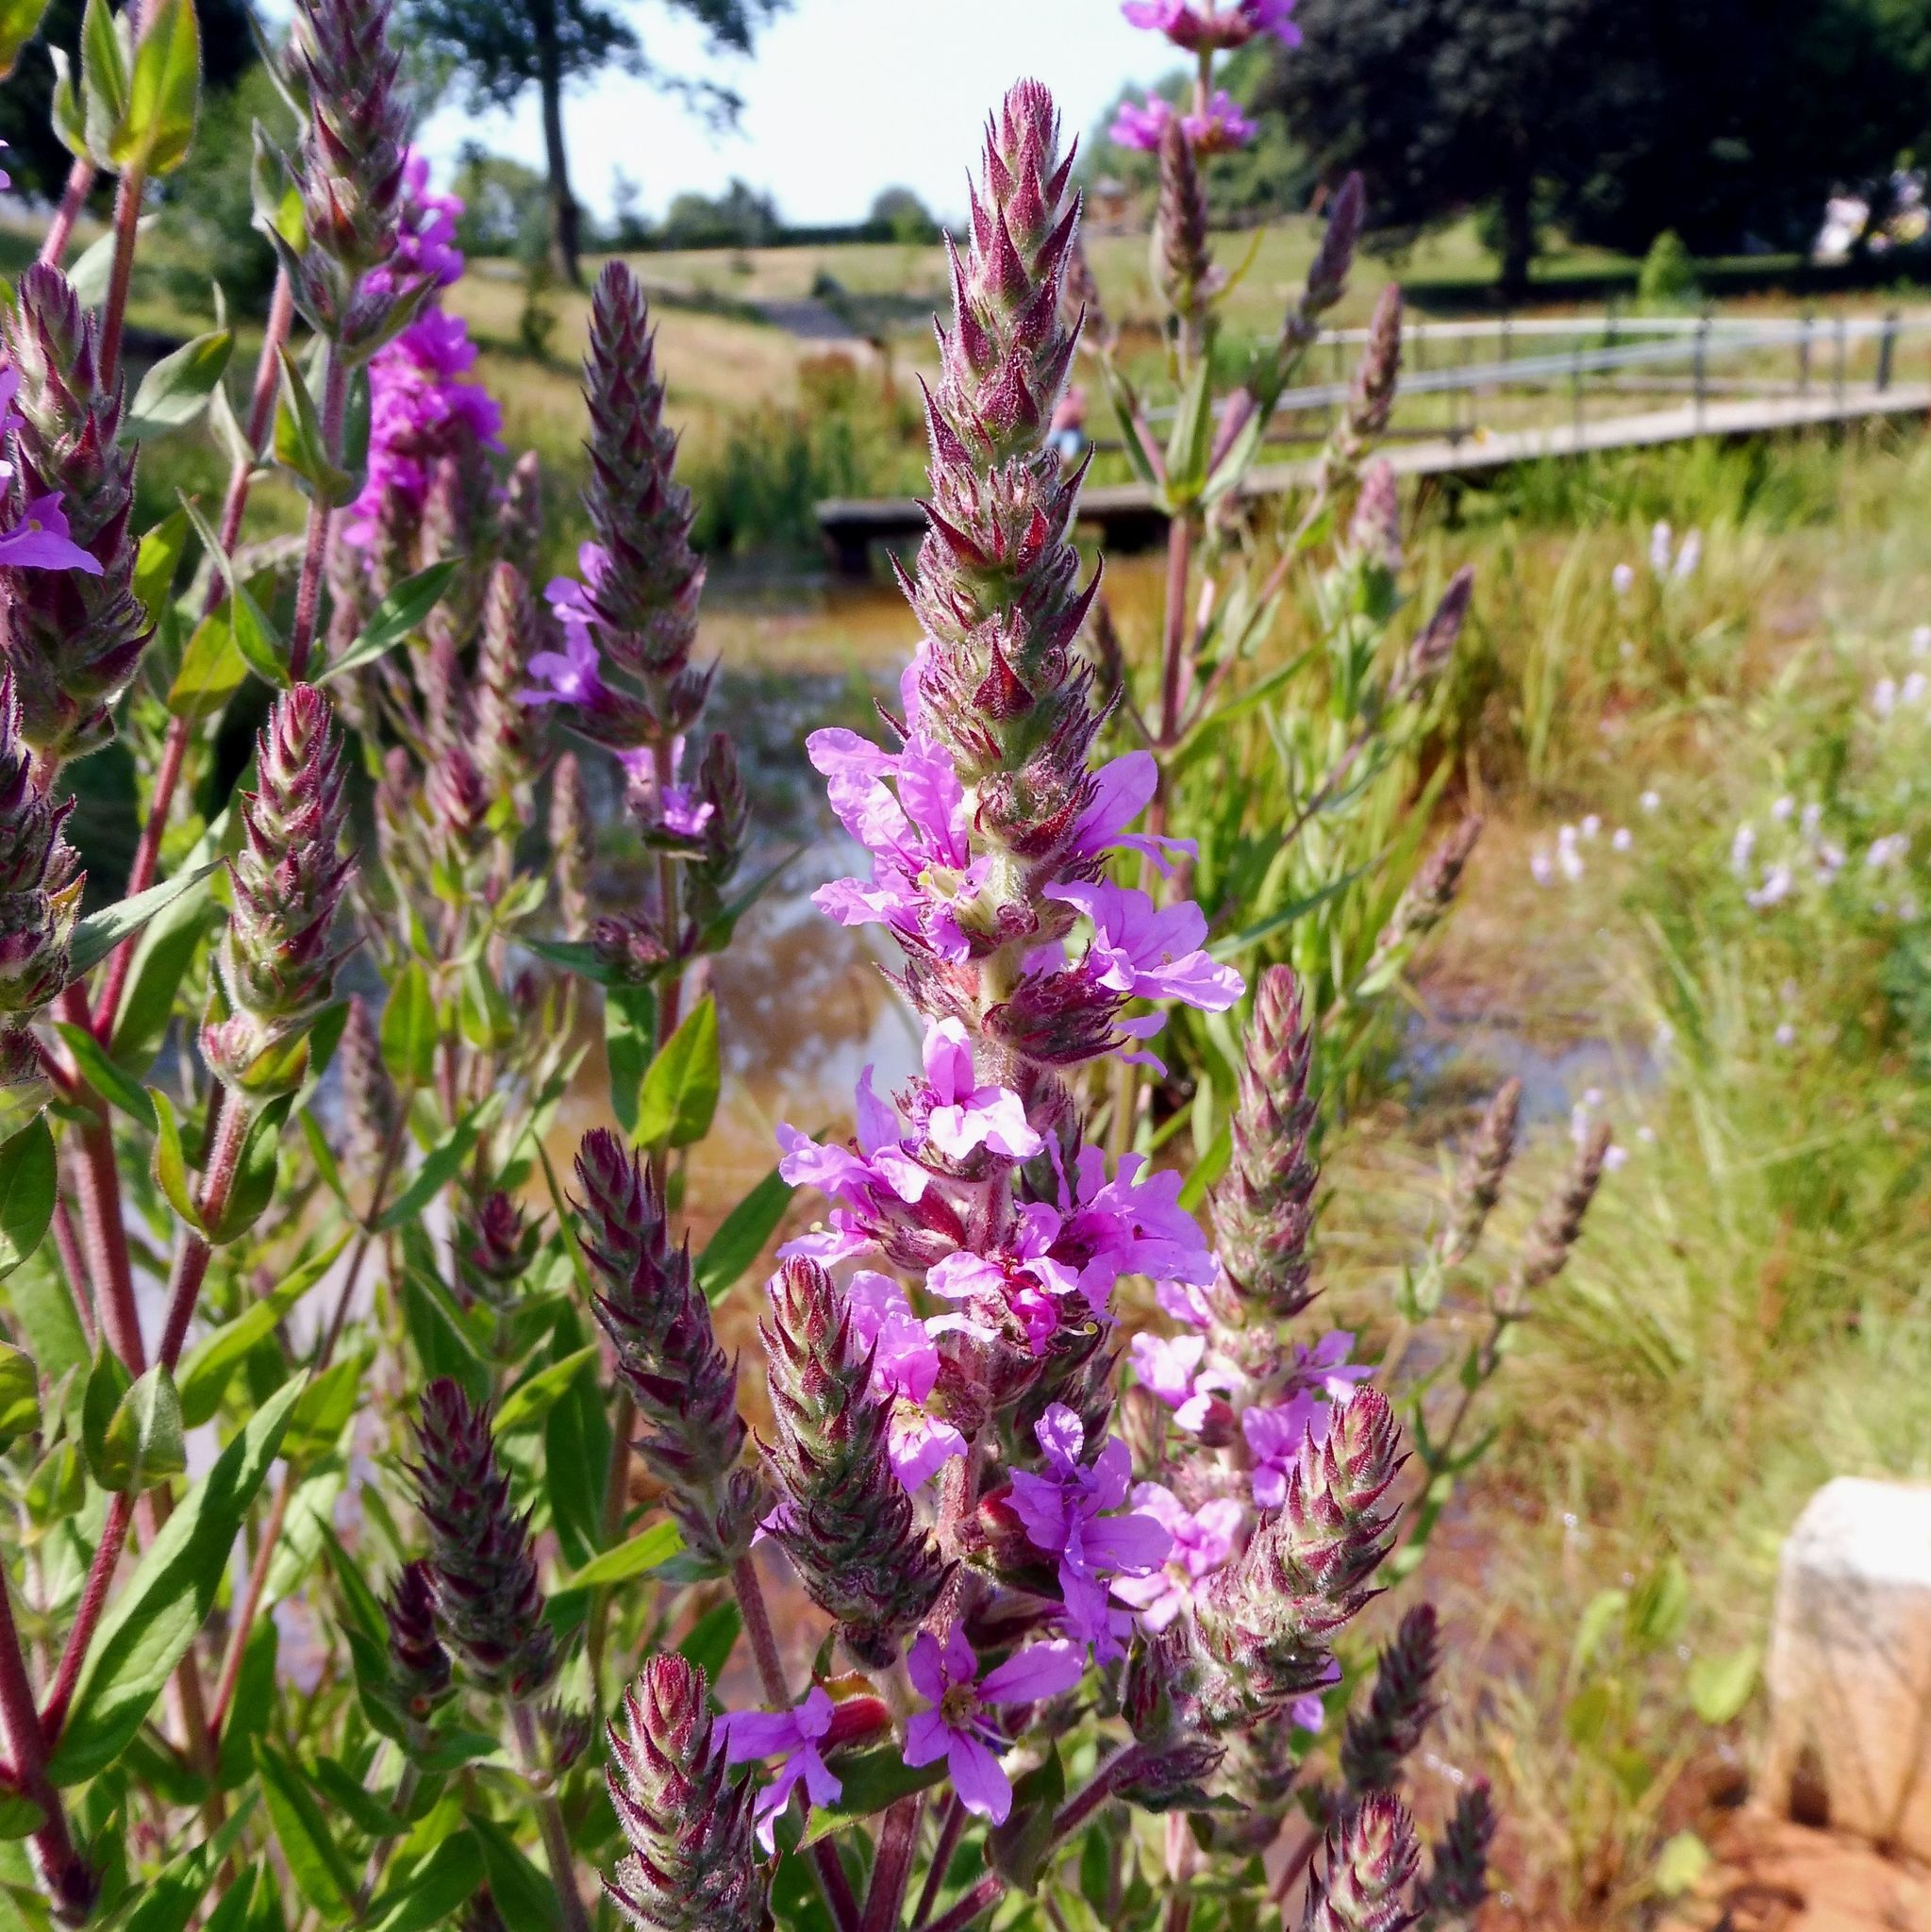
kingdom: Plantae
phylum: Tracheophyta
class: Magnoliopsida
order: Myrtales
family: Lythraceae
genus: Lythrum
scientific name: Lythrum salicaria
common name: Purple loosestrife
